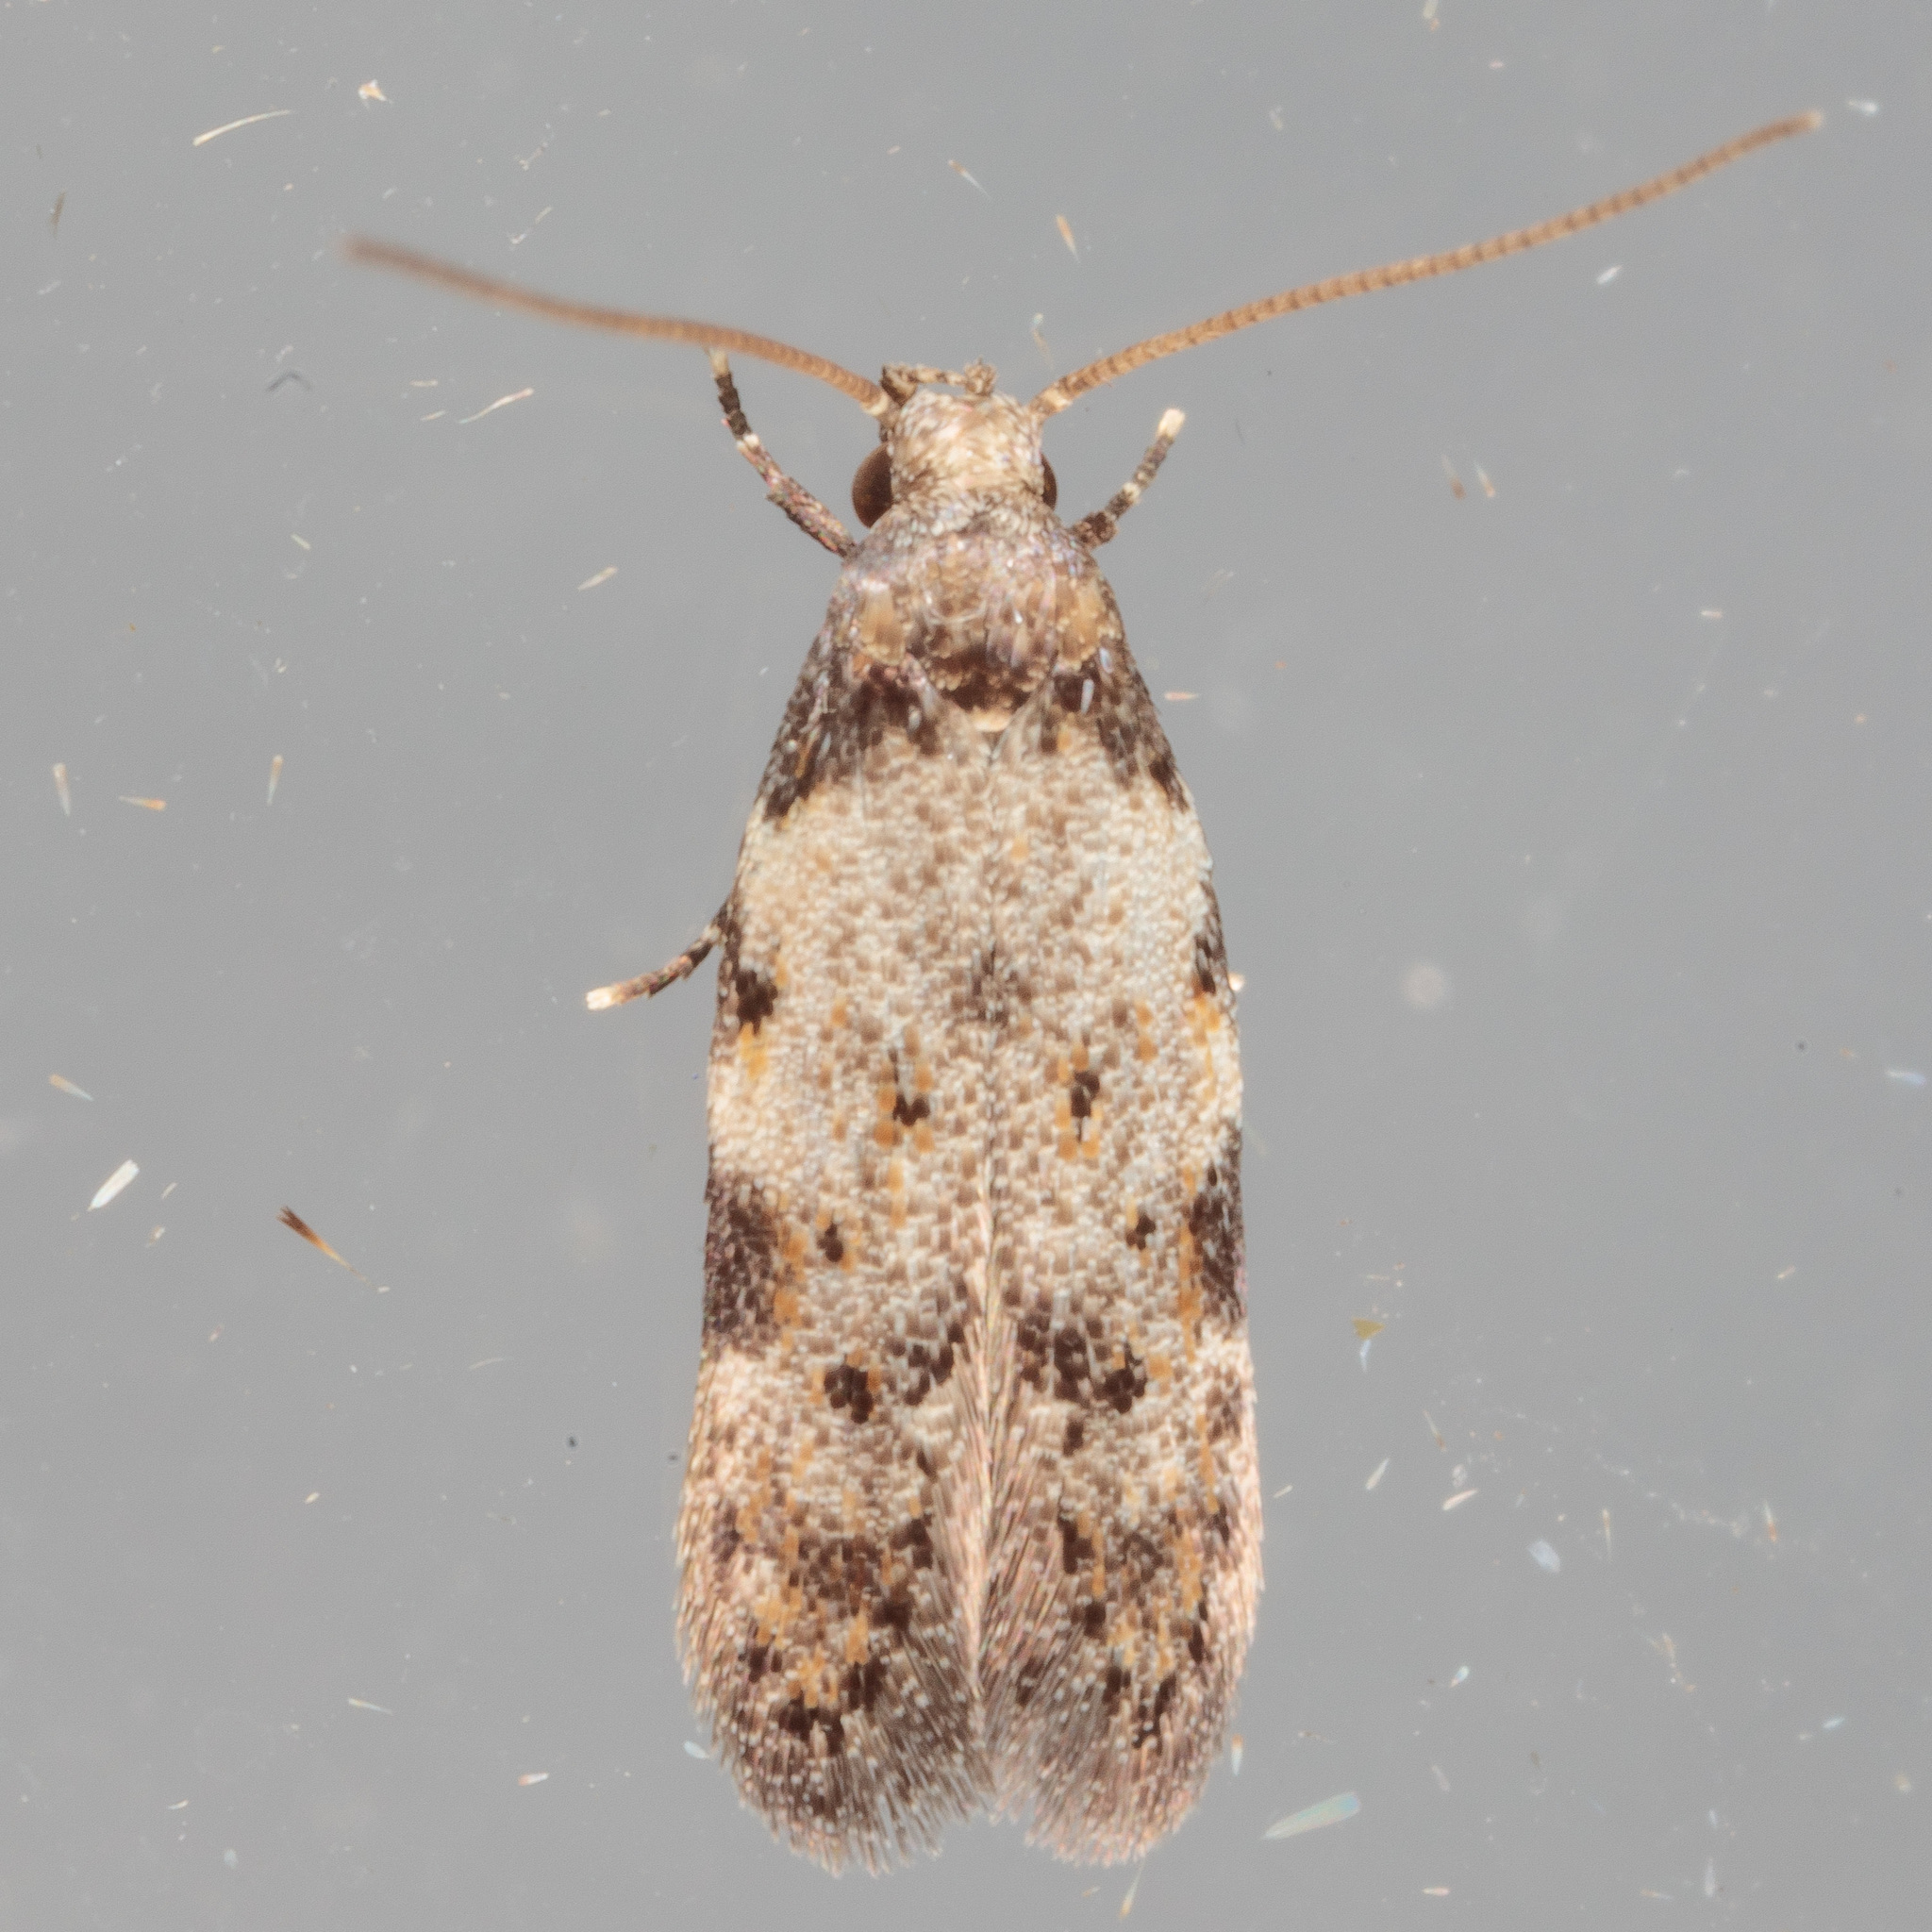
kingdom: Animalia
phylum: Arthropoda
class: Insecta
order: Lepidoptera
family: Autostichidae
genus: Taygete
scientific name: Taygete attributella
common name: Triangle-marked twirler moth
